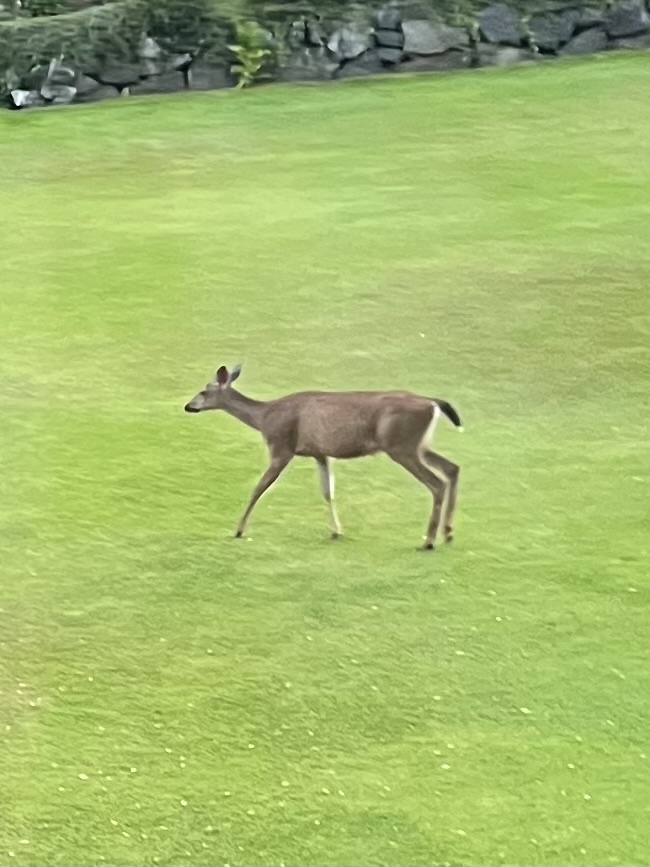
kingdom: Animalia
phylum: Chordata
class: Mammalia
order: Artiodactyla
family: Cervidae
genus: Odocoileus
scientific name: Odocoileus hemionus
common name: Mule deer
